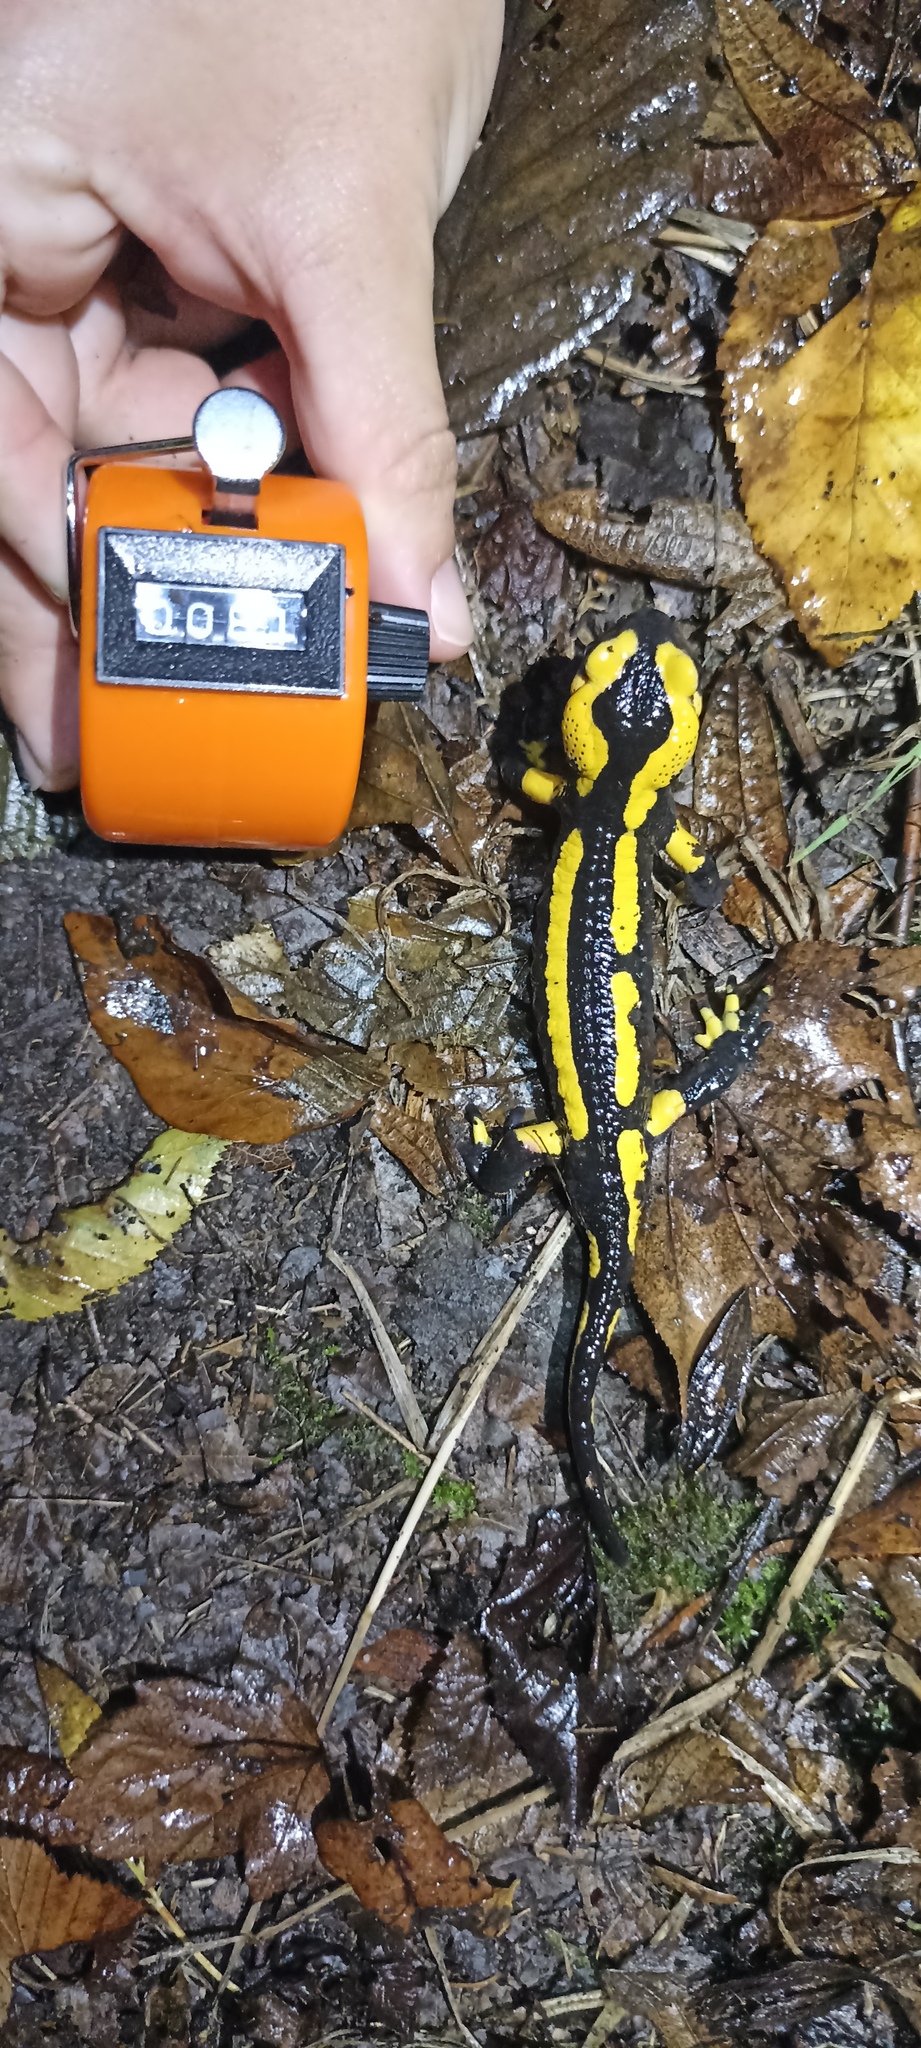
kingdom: Animalia
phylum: Chordata
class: Amphibia
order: Caudata
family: Salamandridae
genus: Salamandra
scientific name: Salamandra salamandra
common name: Fire salamander
